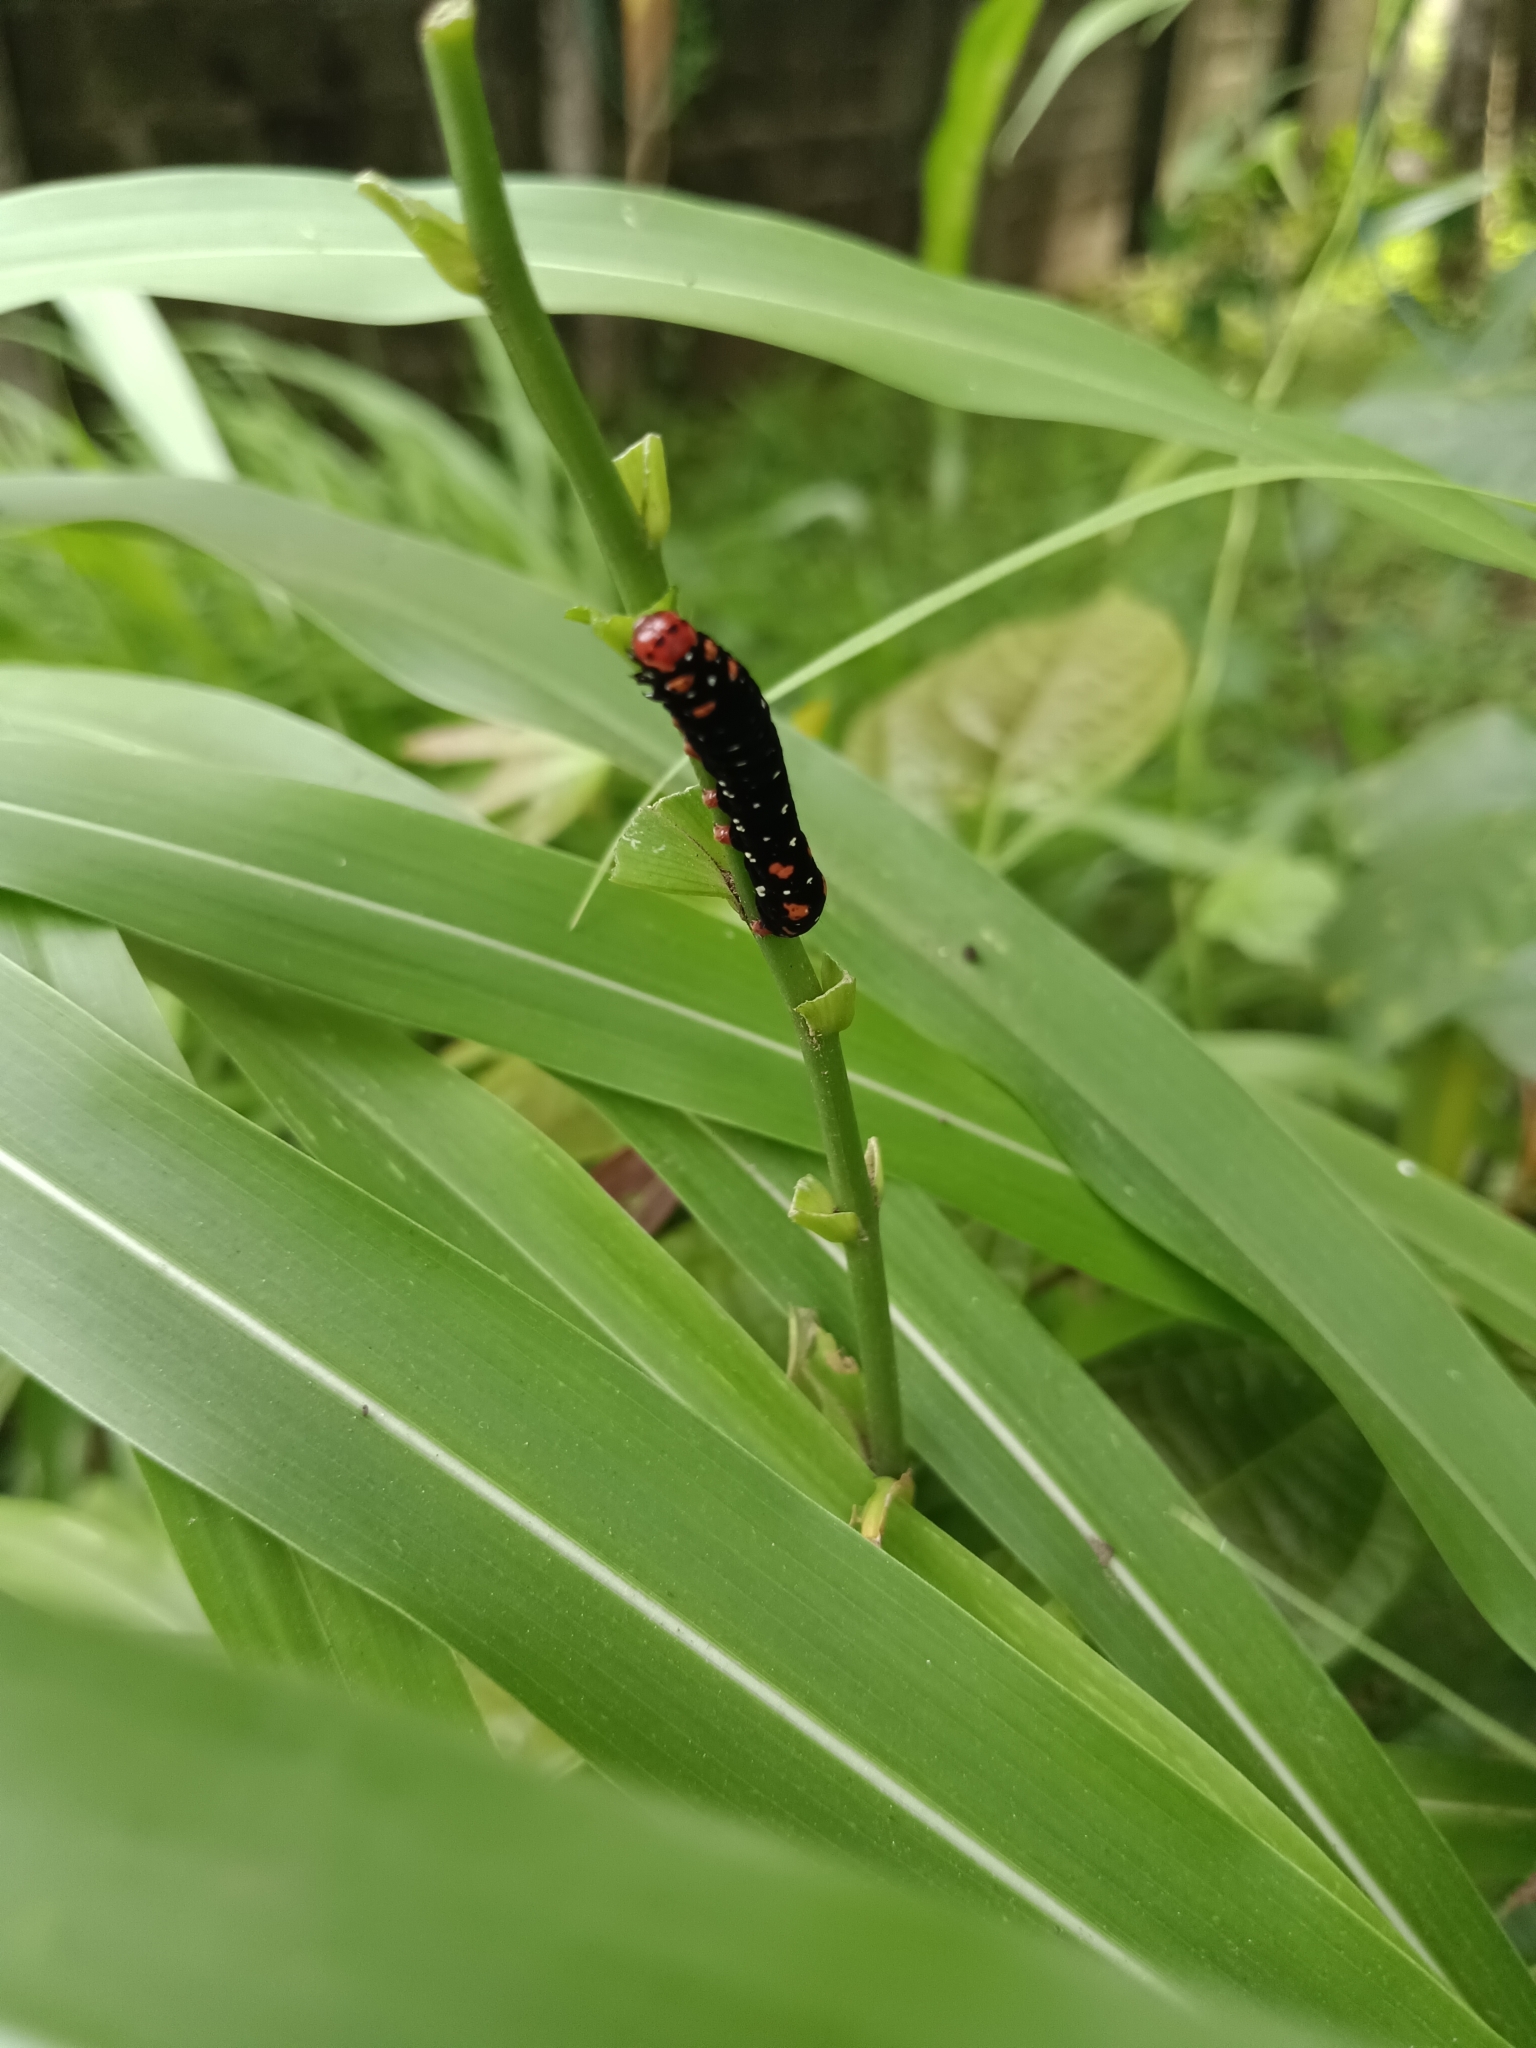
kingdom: Animalia
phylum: Arthropoda
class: Insecta
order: Lepidoptera
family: Noctuidae
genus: Polytela
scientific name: Polytela gloriosae
